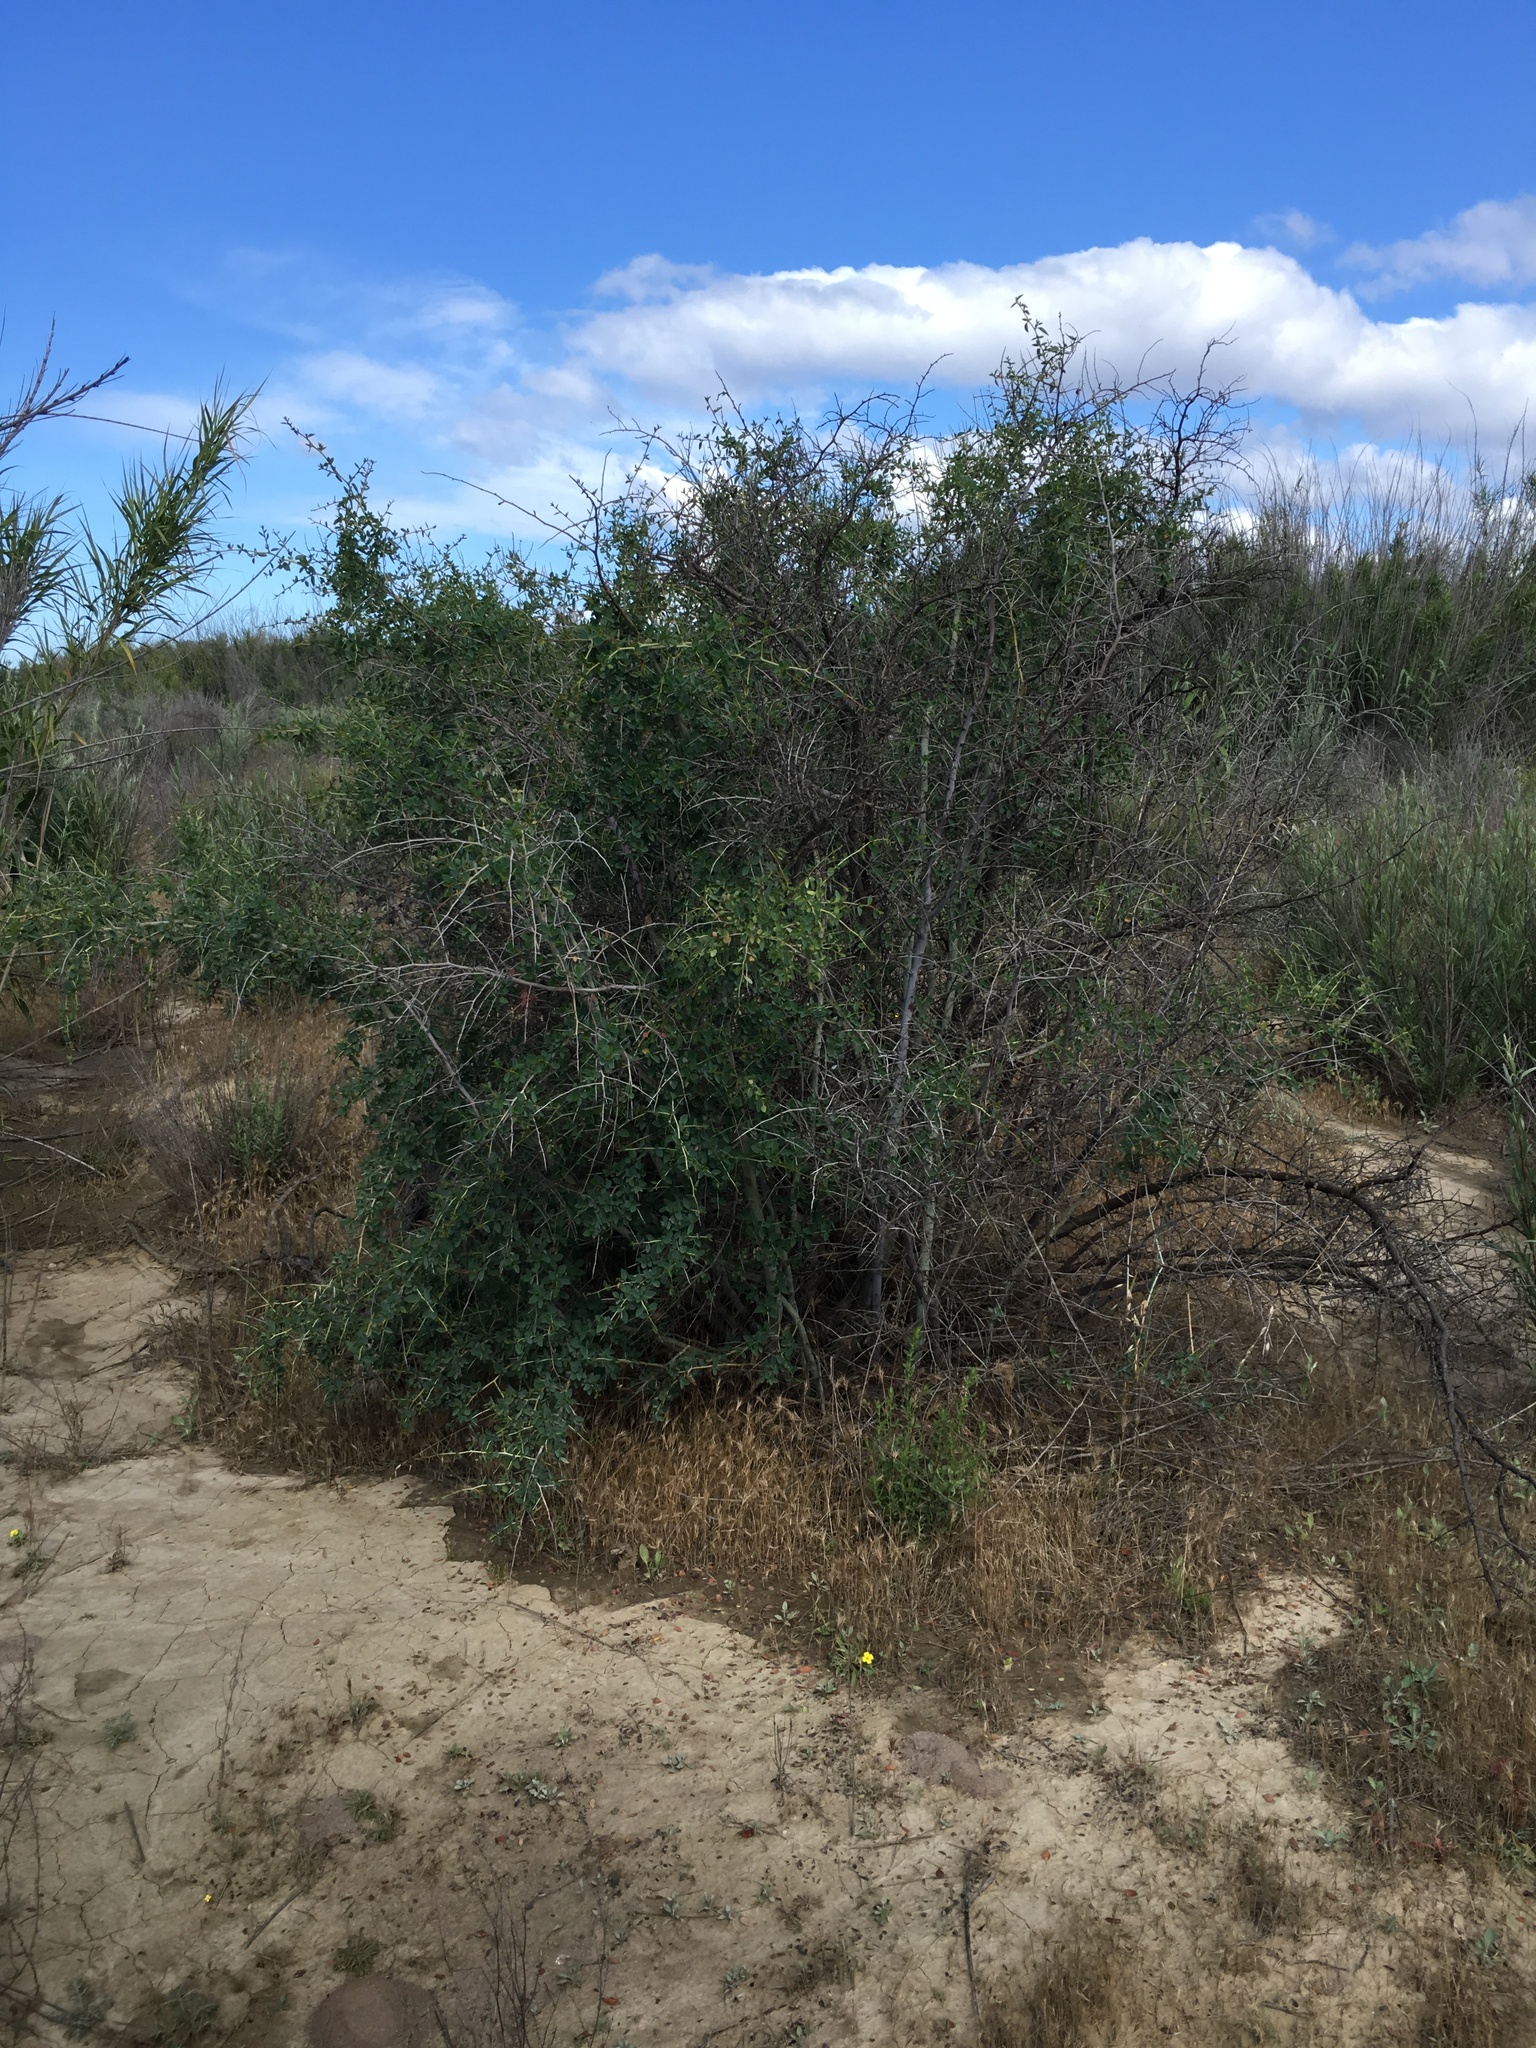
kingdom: Plantae
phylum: Tracheophyta
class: Magnoliopsida
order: Rosales
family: Rhamnaceae
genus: Ceanothus
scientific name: Ceanothus leucodermis
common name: Chaparral whitethorn
